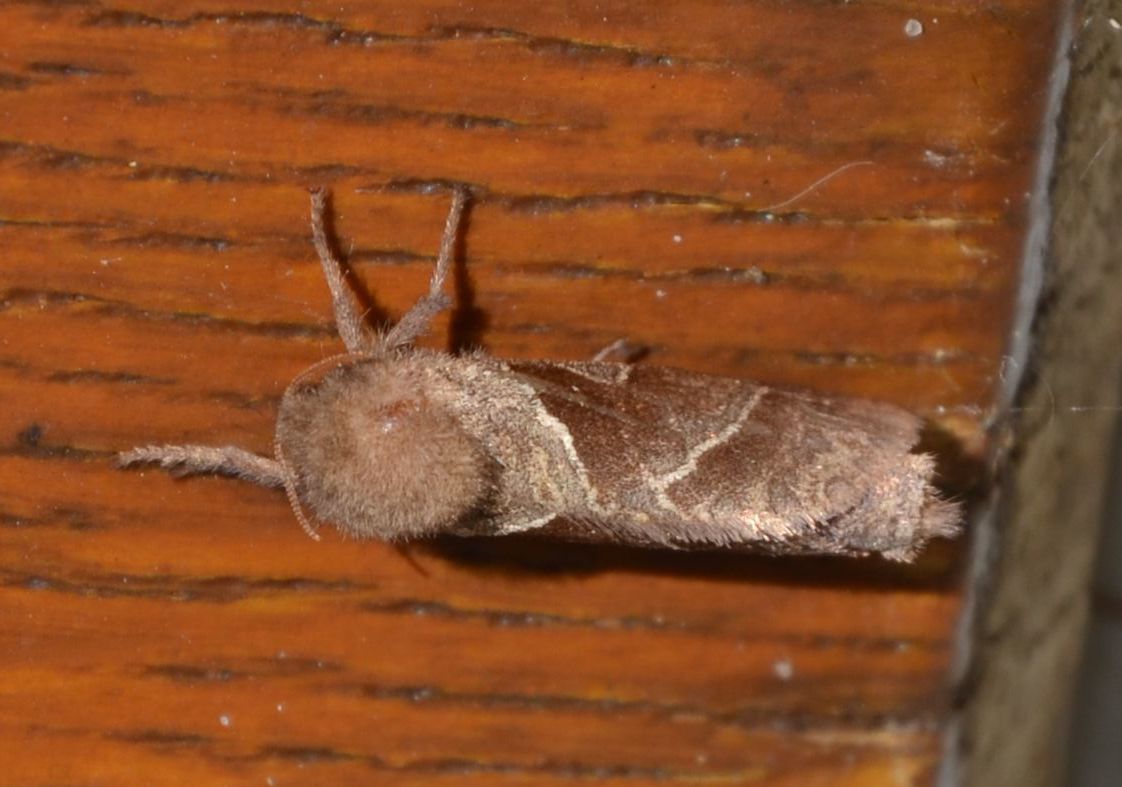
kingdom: Animalia
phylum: Arthropoda
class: Insecta
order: Lepidoptera
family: Hepialidae
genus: Triodia
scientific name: Triodia sylvina
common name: Orange swift
